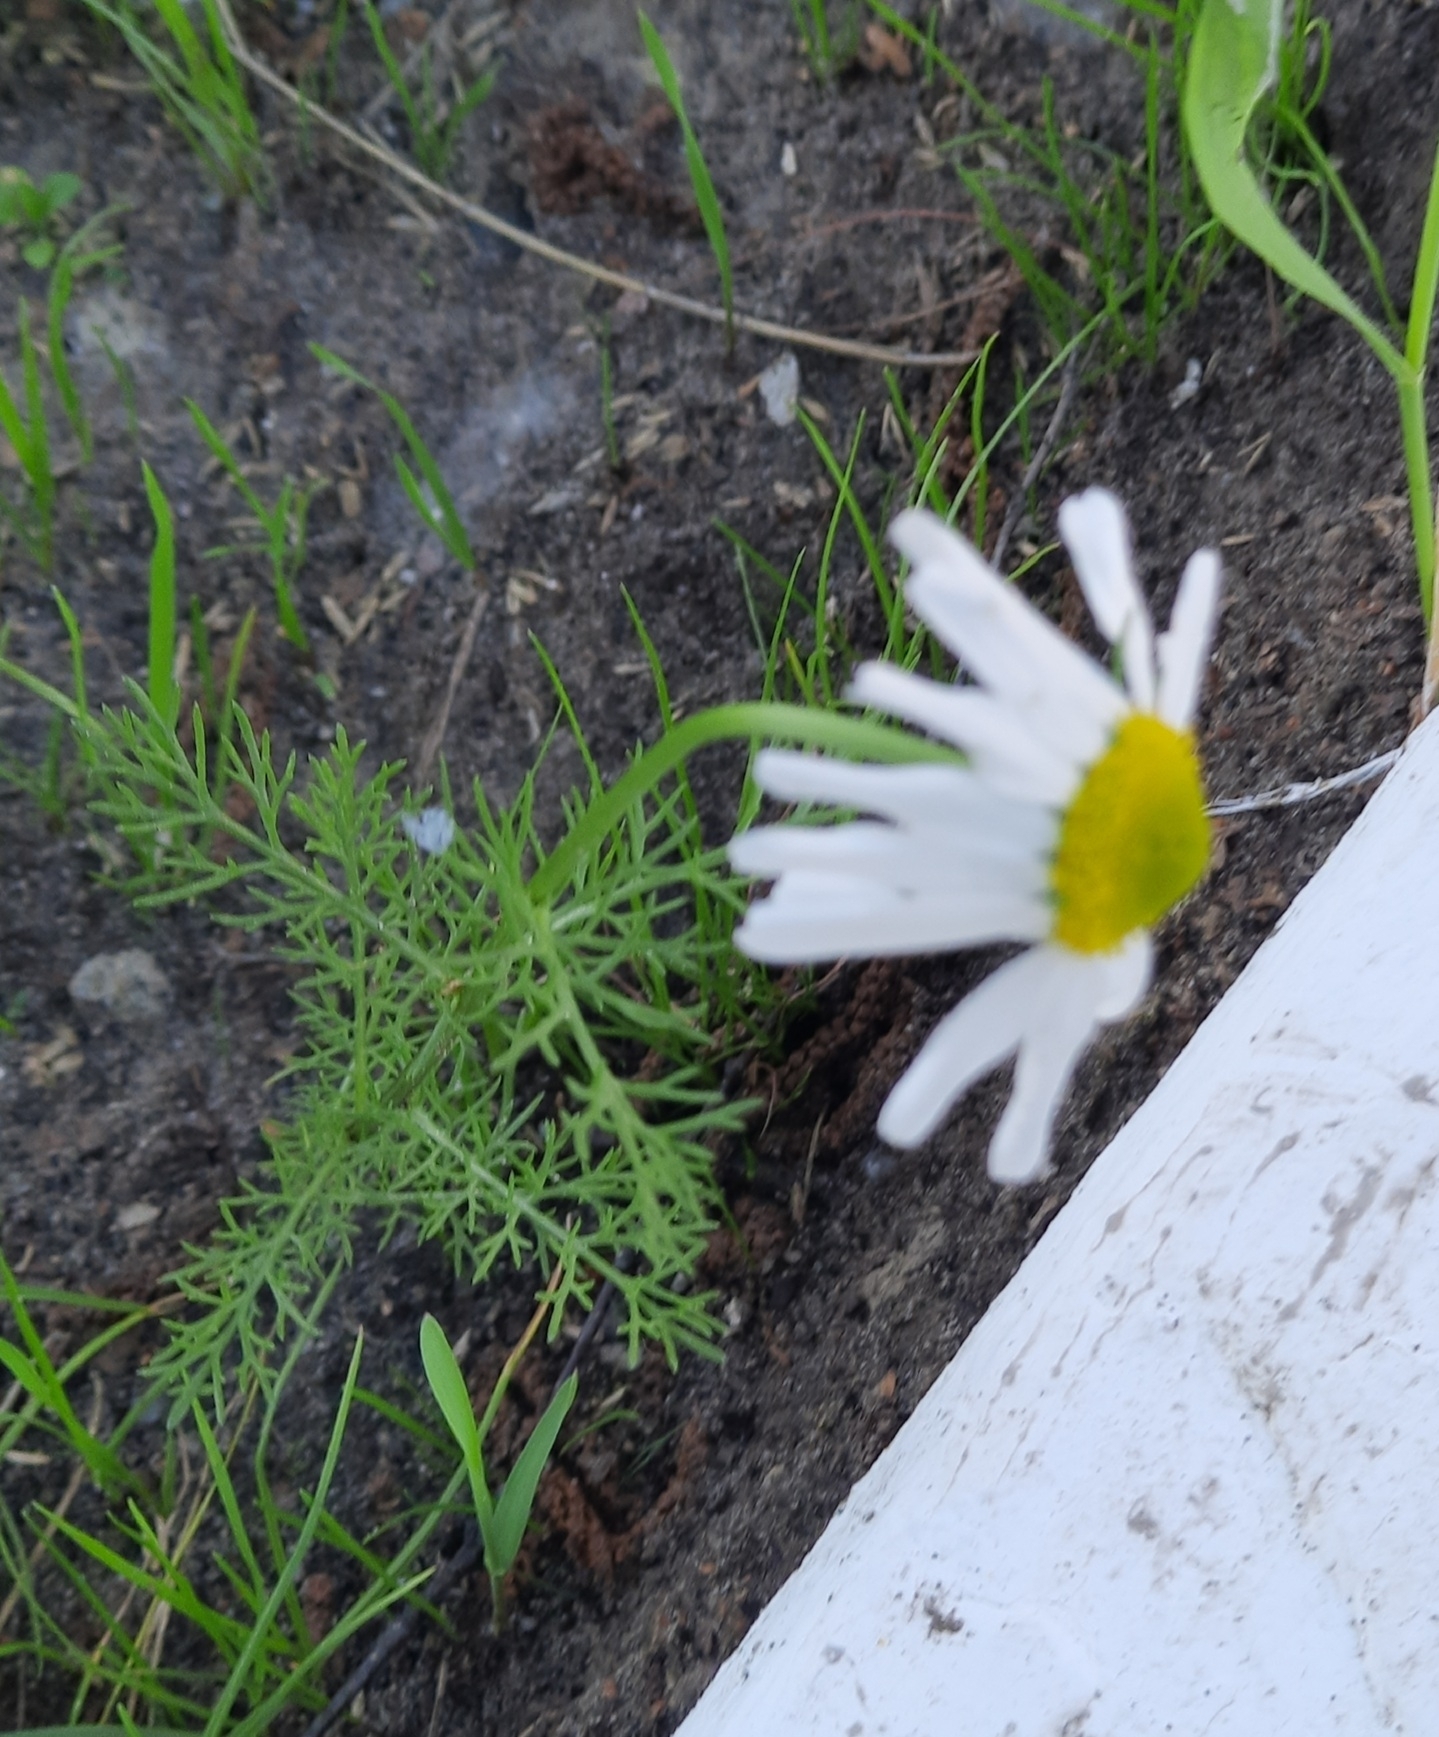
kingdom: Plantae
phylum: Tracheophyta
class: Magnoliopsida
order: Asterales
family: Asteraceae
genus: Tripleurospermum
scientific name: Tripleurospermum inodorum
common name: Scentless mayweed
